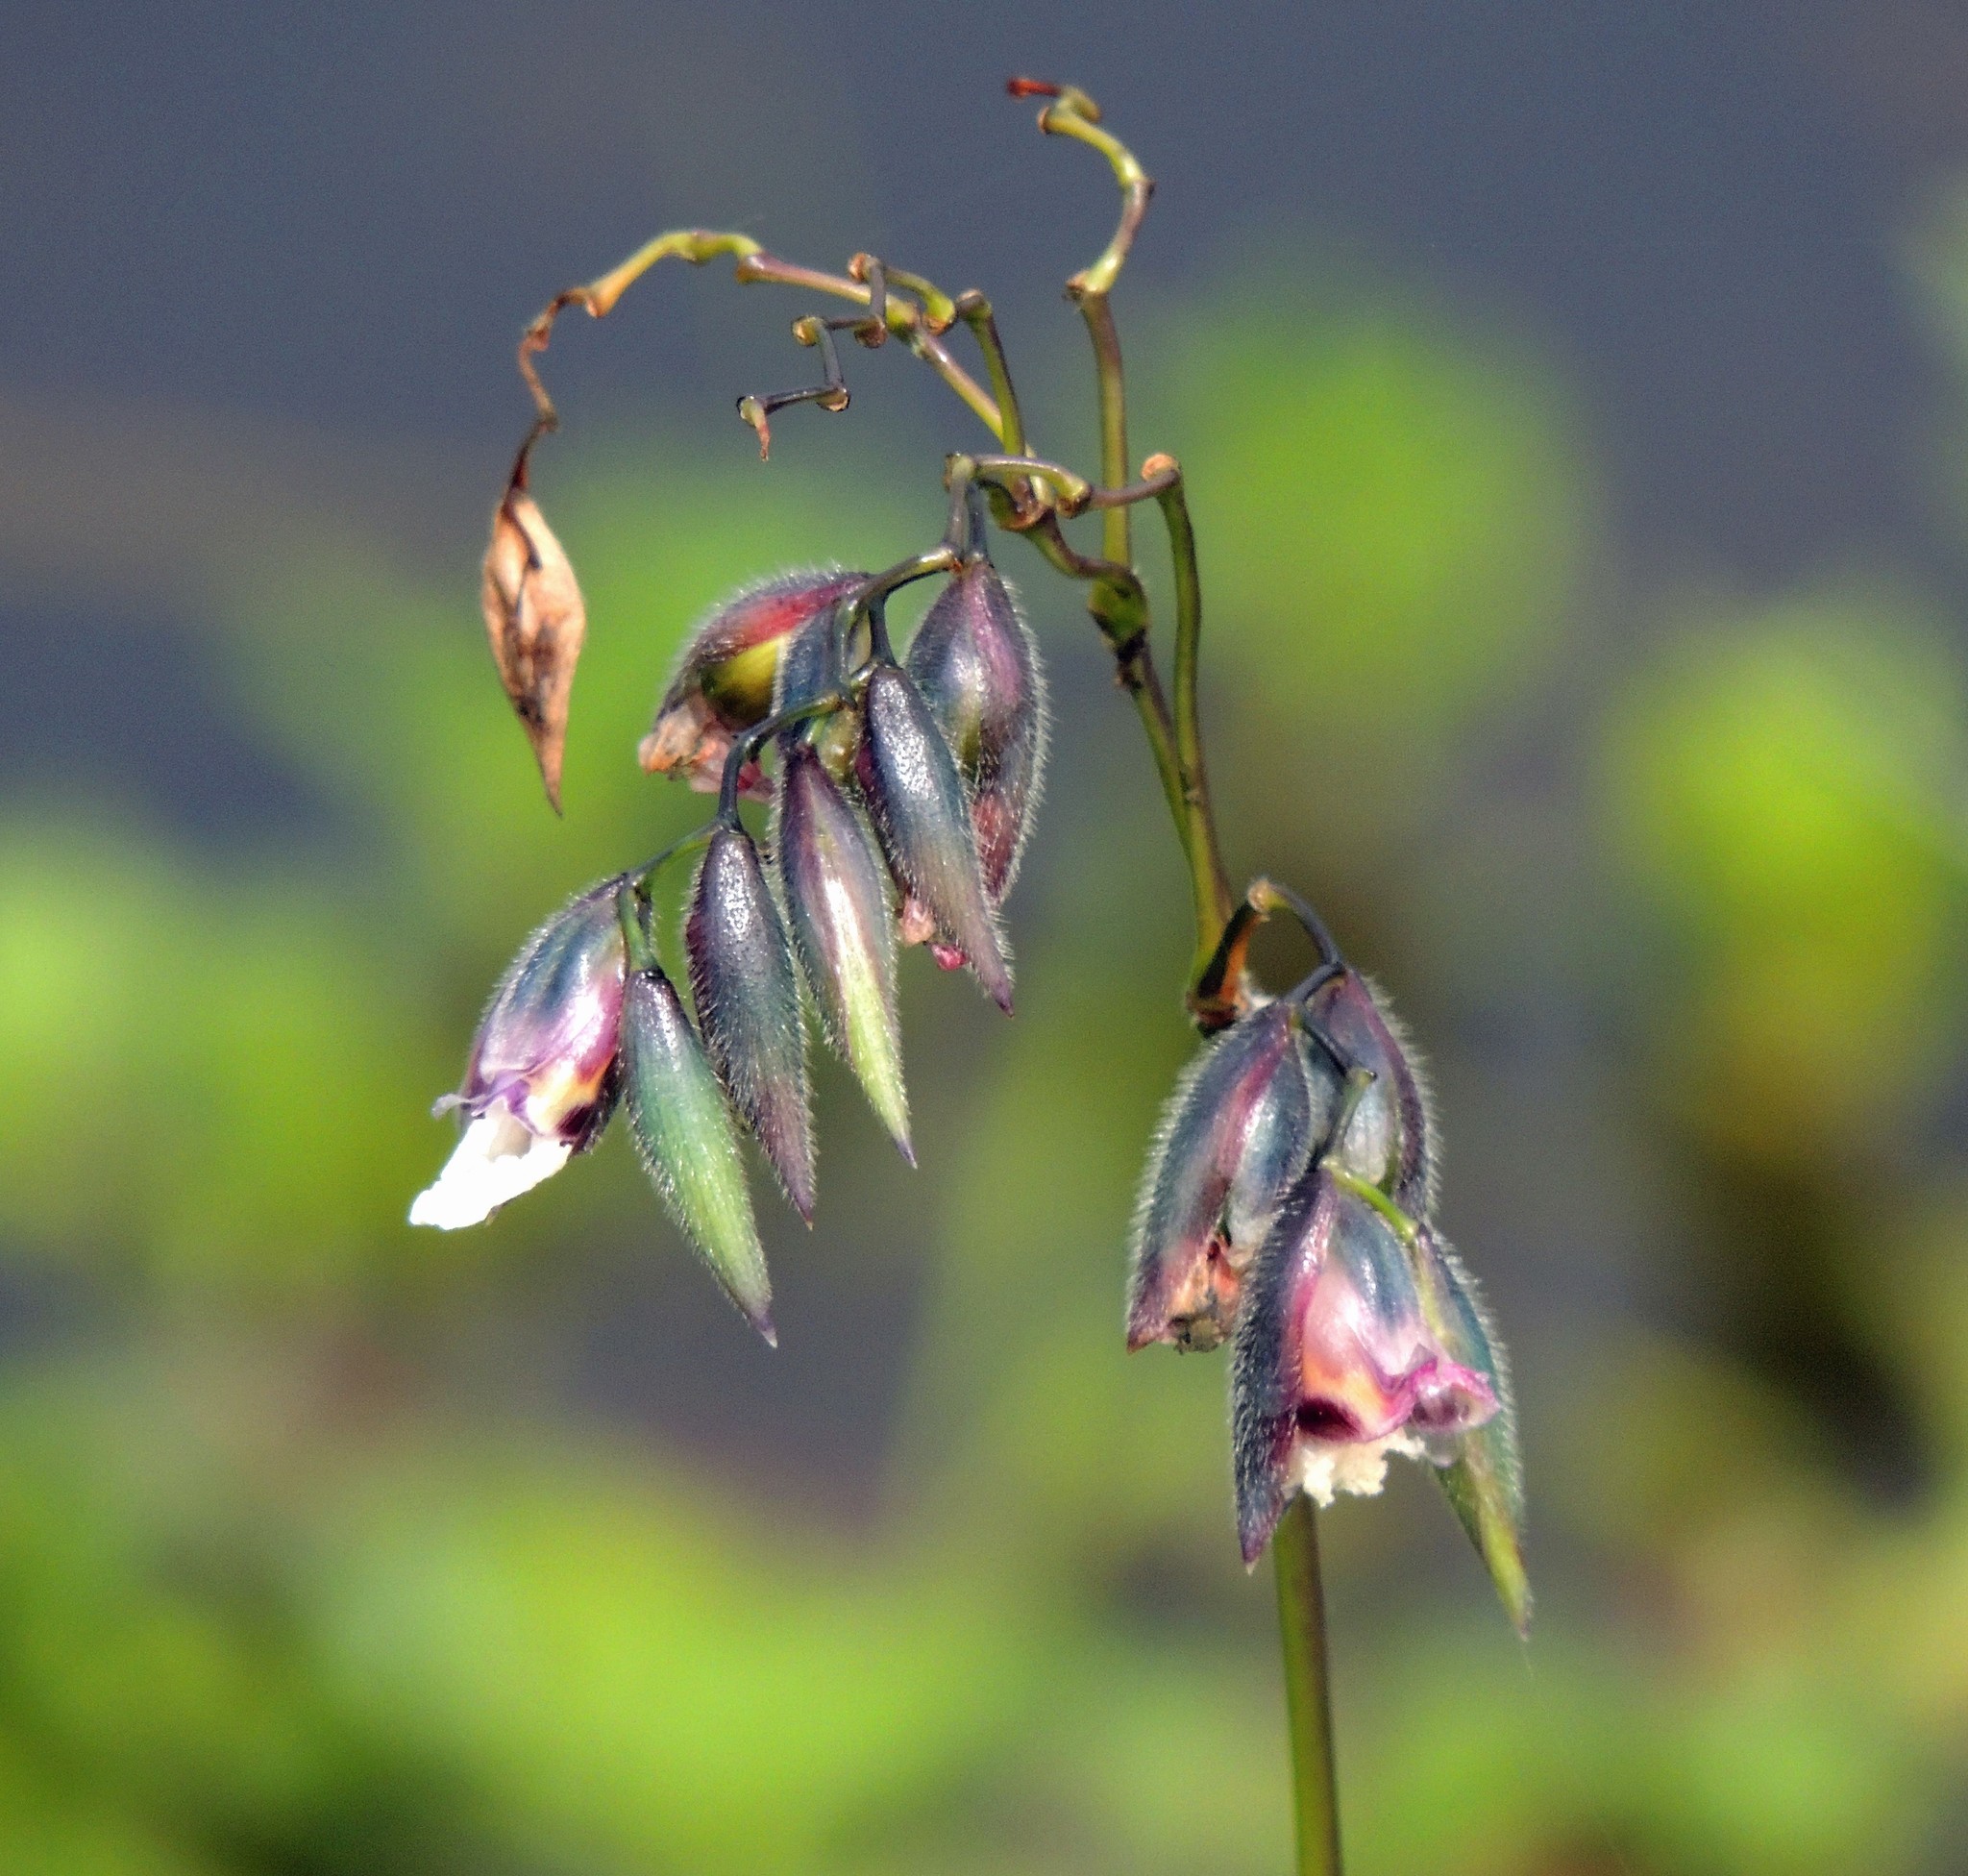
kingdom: Plantae
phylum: Tracheophyta
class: Liliopsida
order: Zingiberales
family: Marantaceae
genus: Thalia
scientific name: Thalia geniculata
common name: Arrowroot
